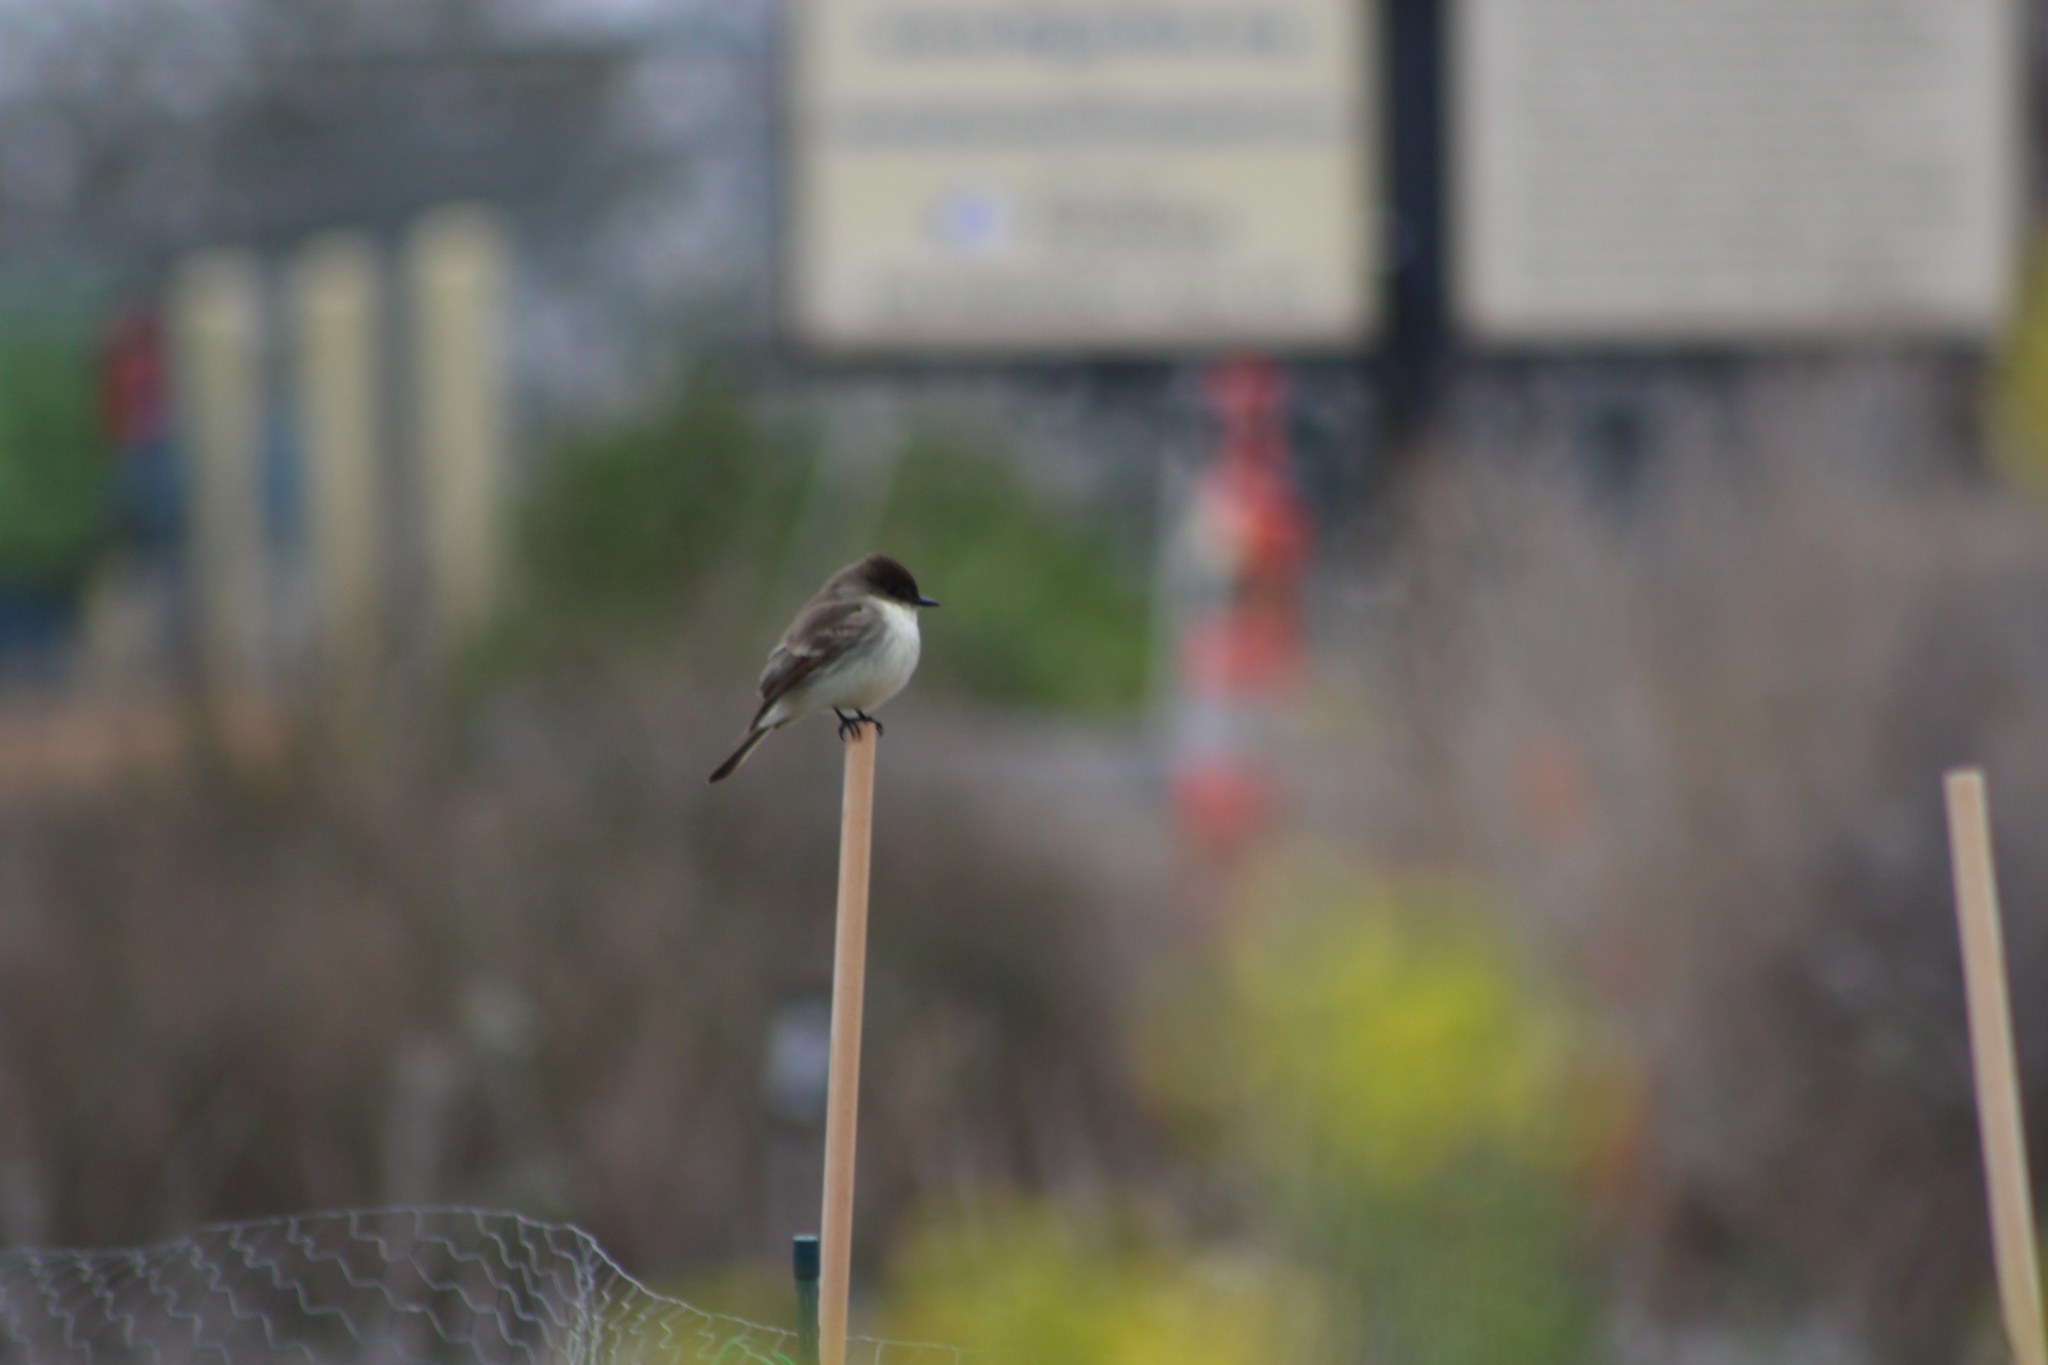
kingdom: Animalia
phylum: Chordata
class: Aves
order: Passeriformes
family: Tyrannidae
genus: Sayornis
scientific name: Sayornis phoebe
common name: Eastern phoebe
